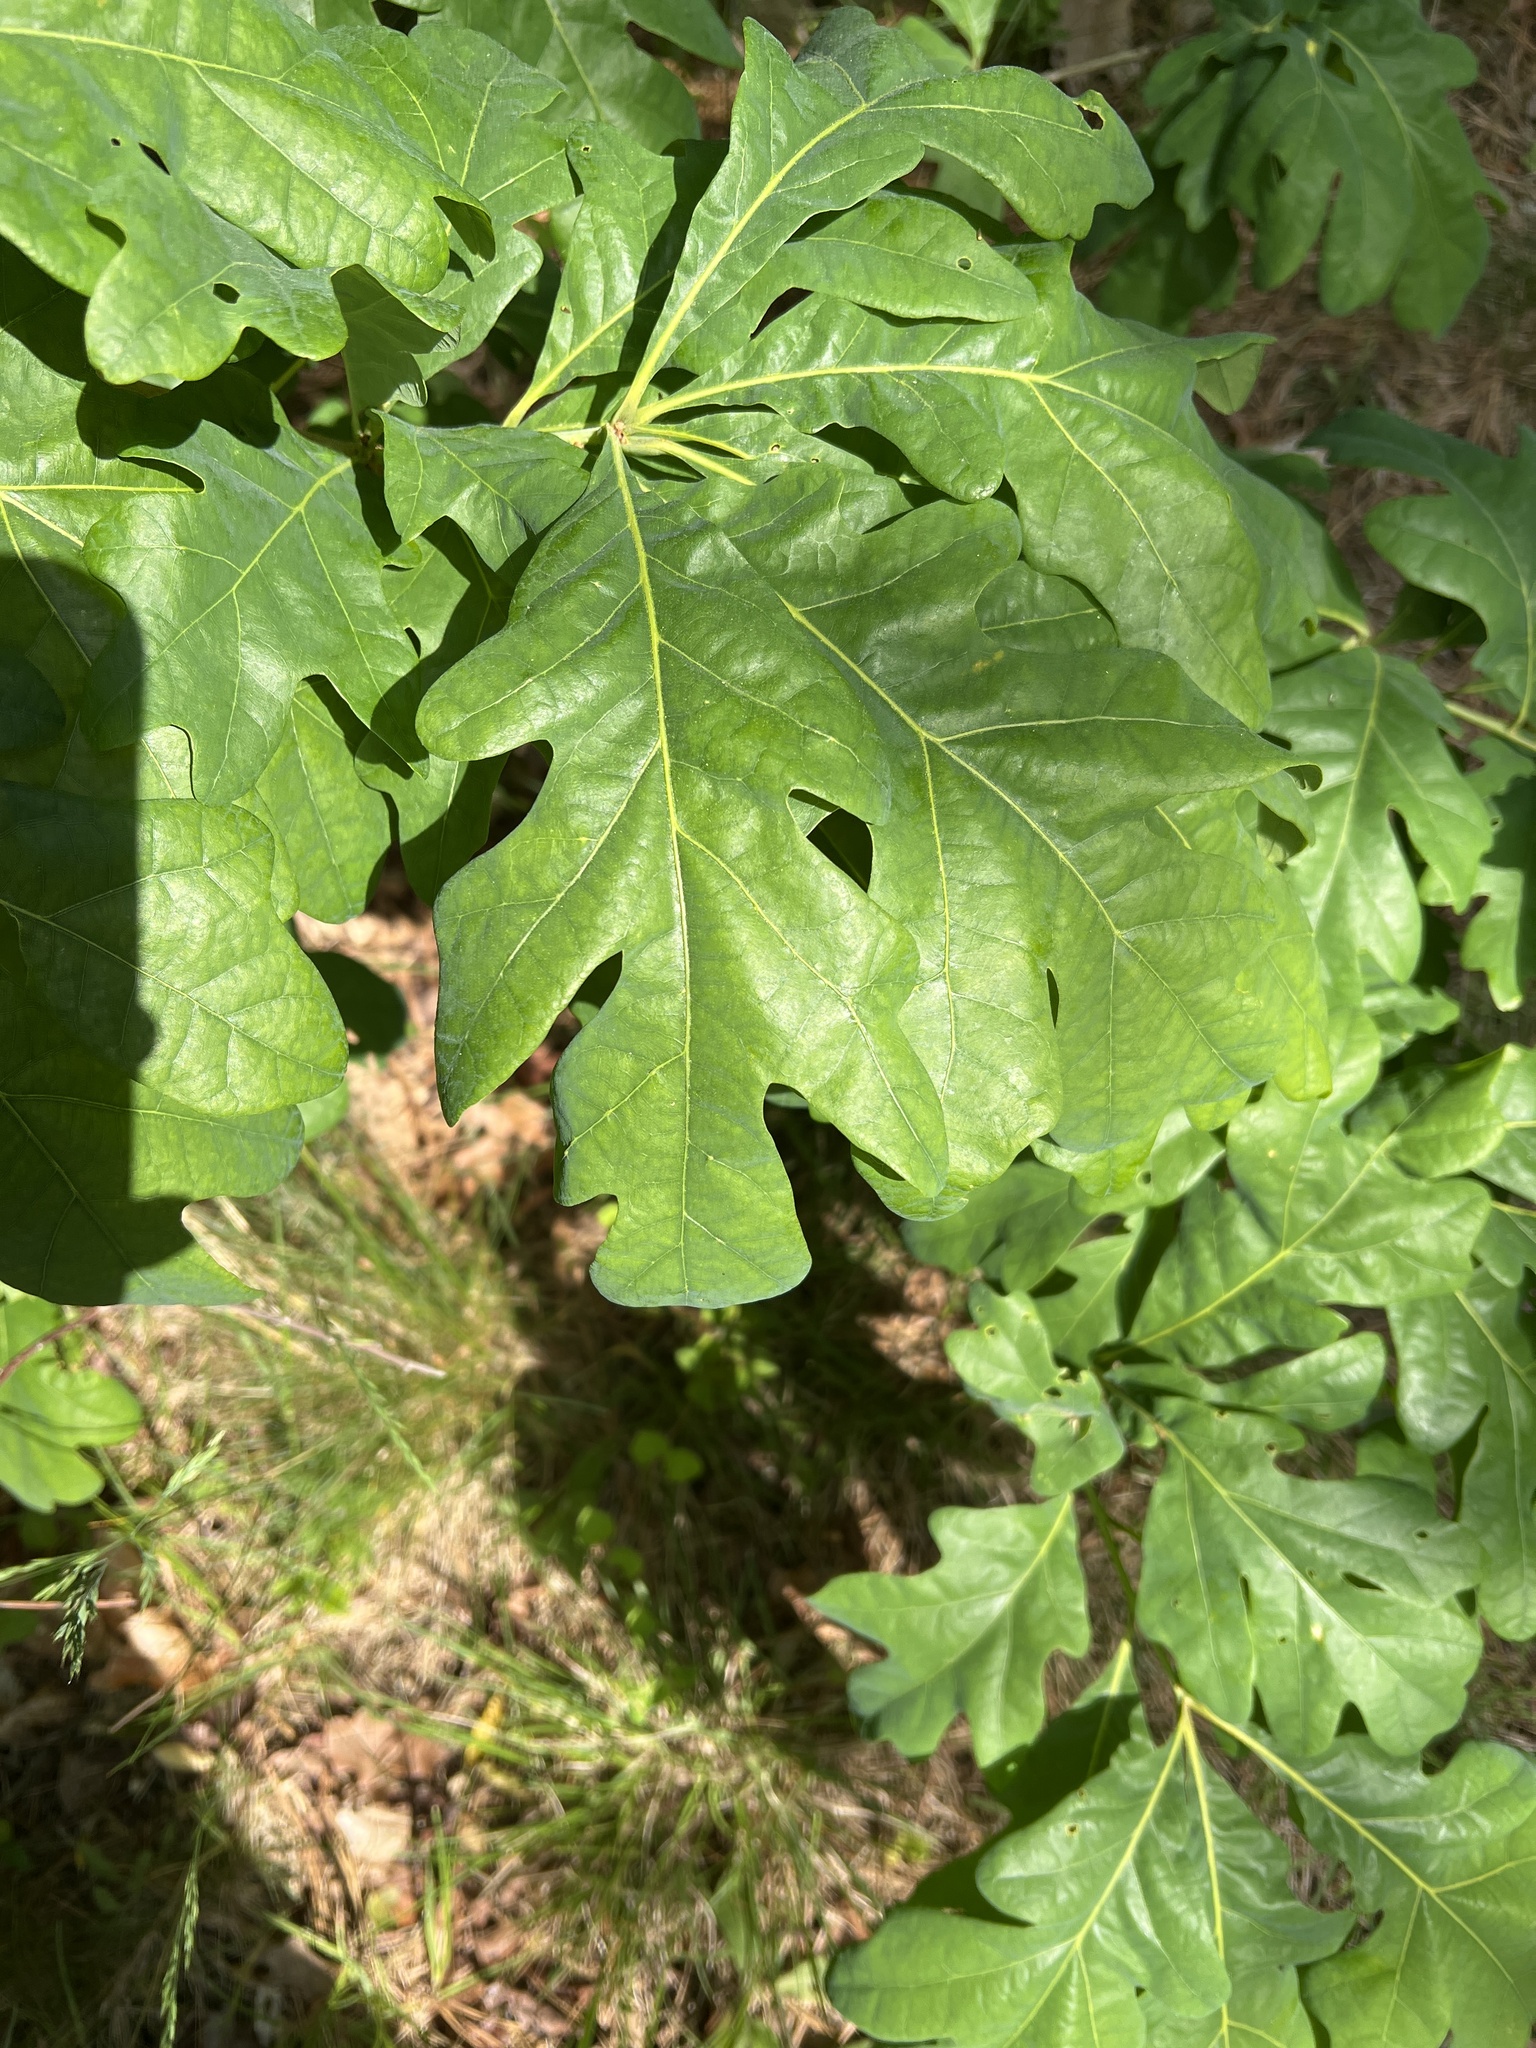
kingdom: Plantae
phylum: Tracheophyta
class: Magnoliopsida
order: Fagales
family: Fagaceae
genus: Quercus
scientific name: Quercus alba
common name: White oak
